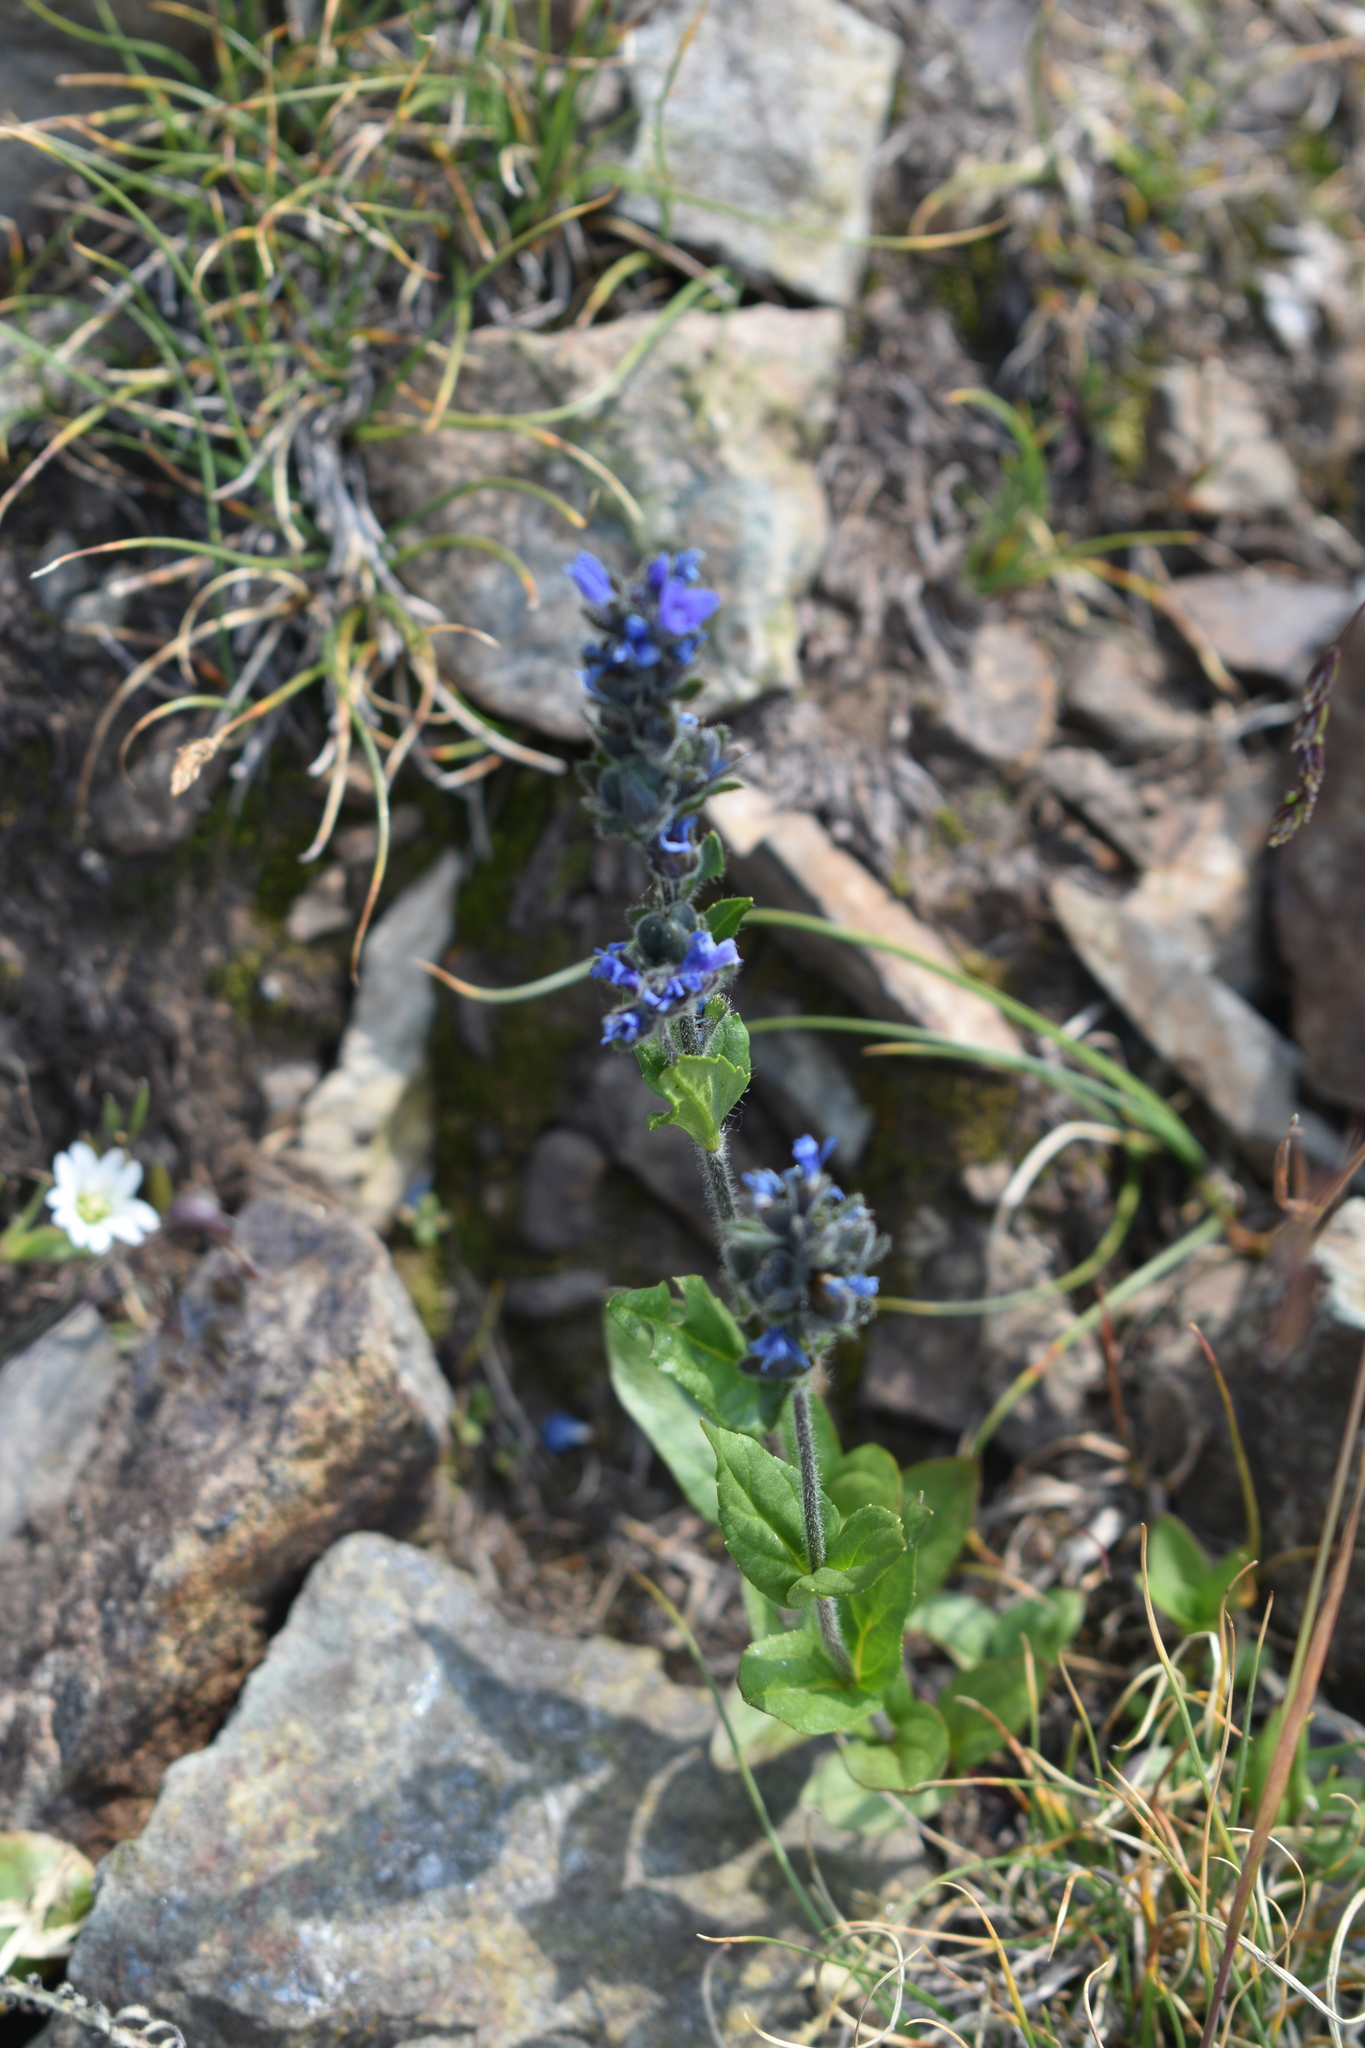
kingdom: Plantae
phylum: Tracheophyta
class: Magnoliopsida
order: Lamiales
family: Plantaginaceae
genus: Veronica
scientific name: Veronica wormskjoldii
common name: American alpine speedwell
